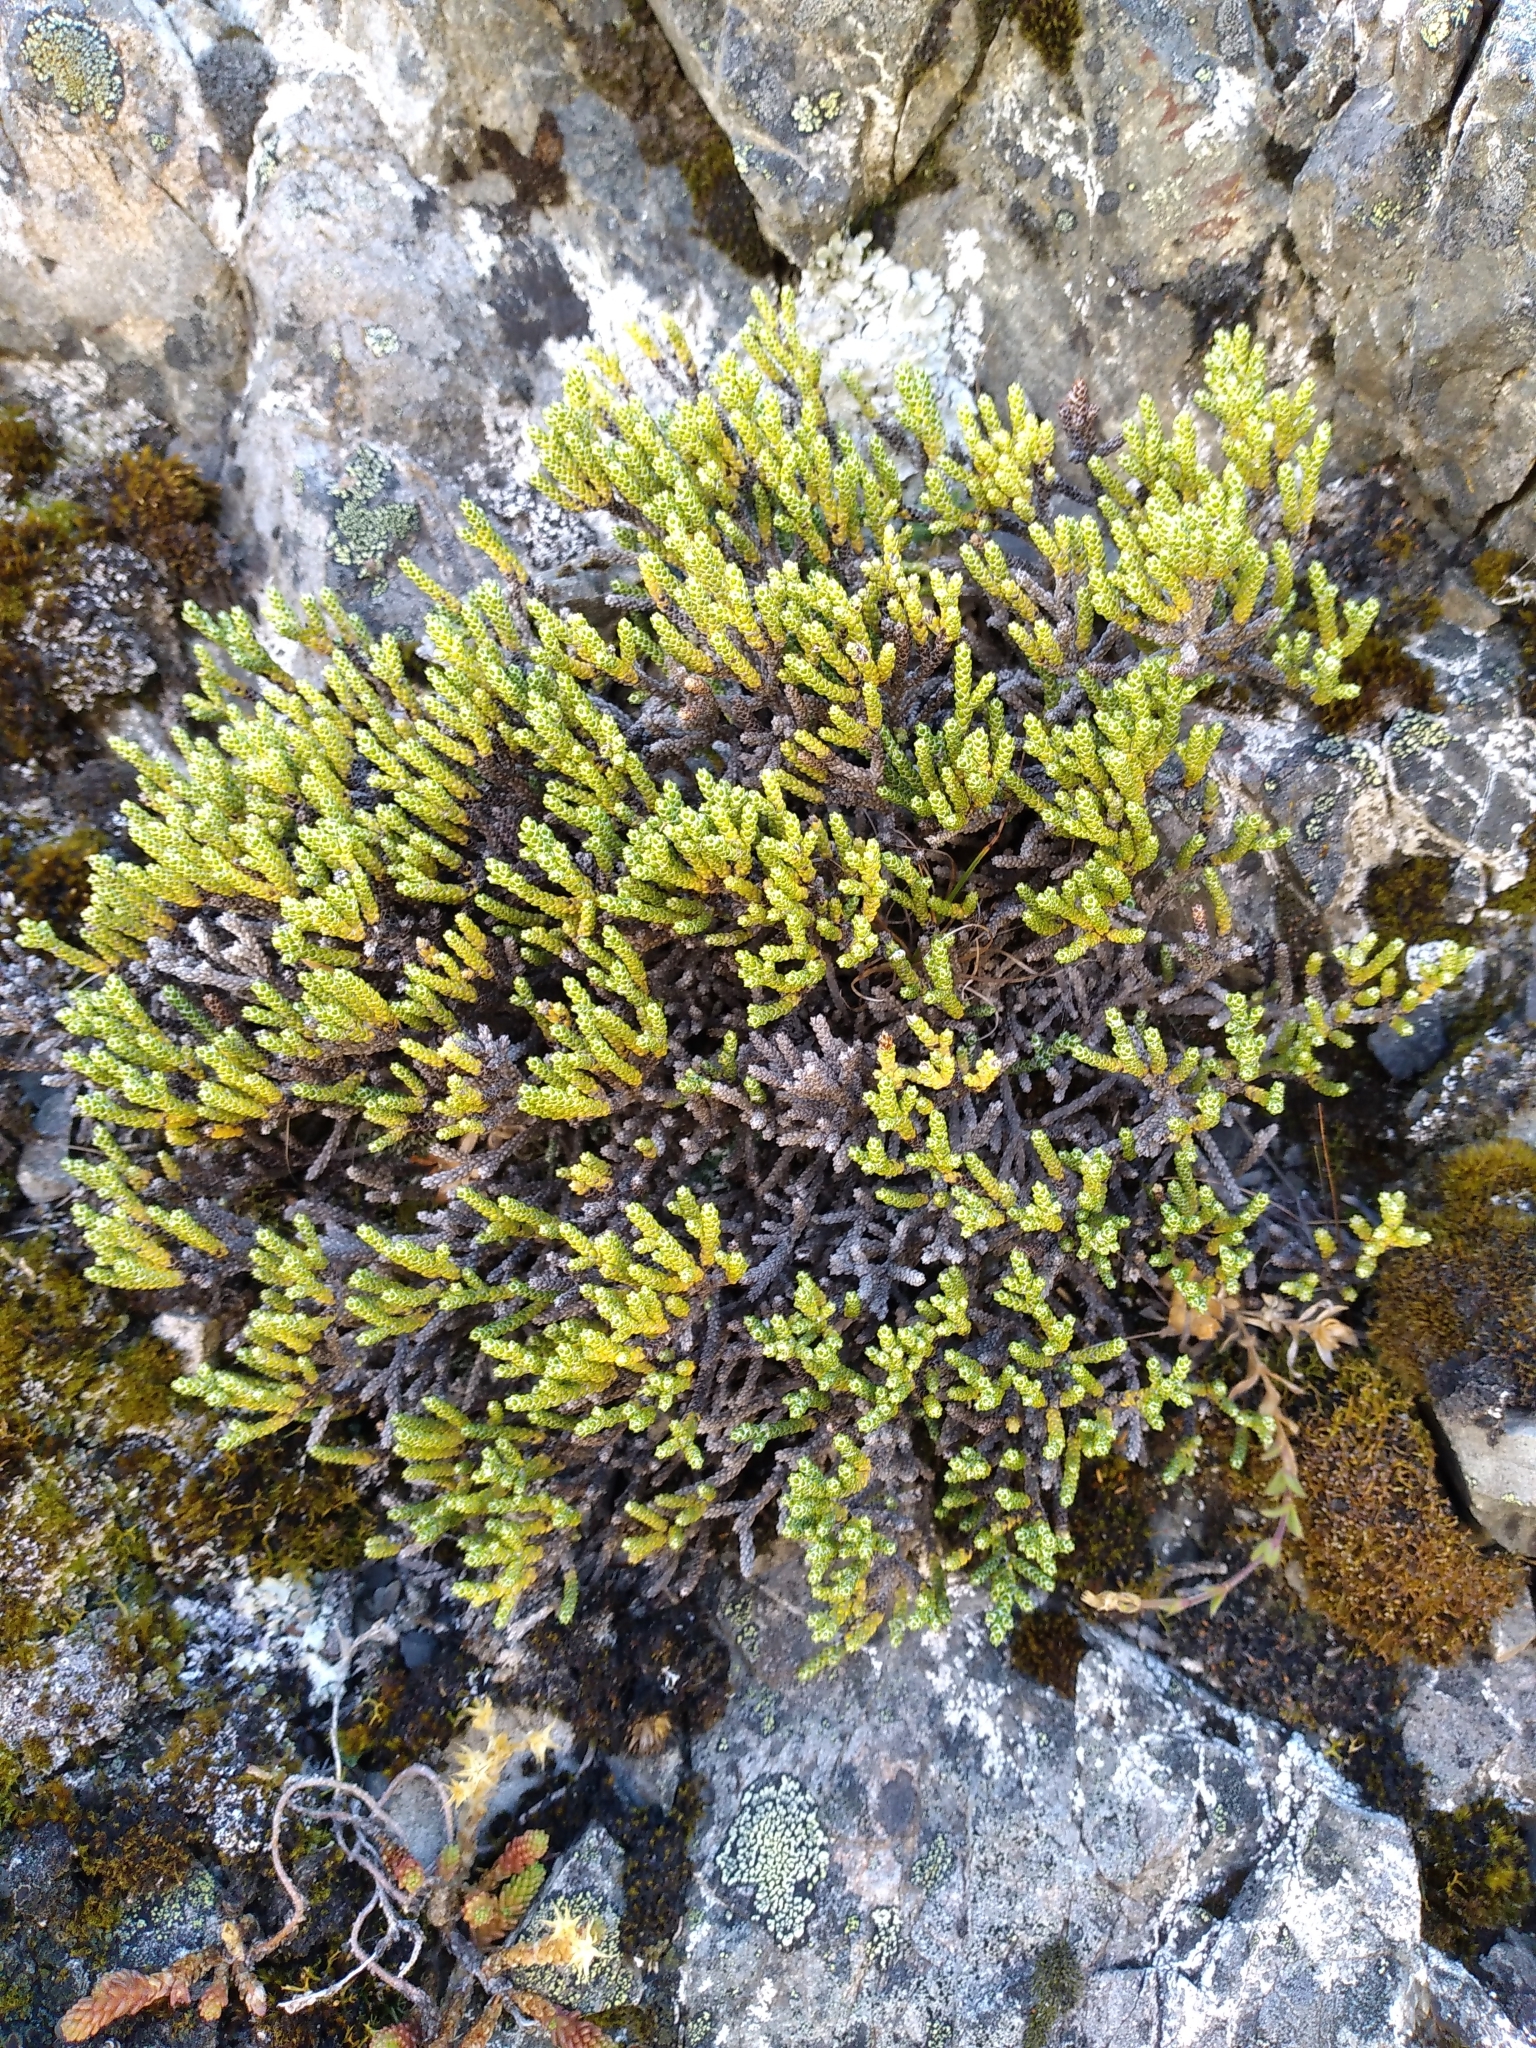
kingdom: Plantae
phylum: Tracheophyta
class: Magnoliopsida
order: Asterales
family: Asteraceae
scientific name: Asteraceae
